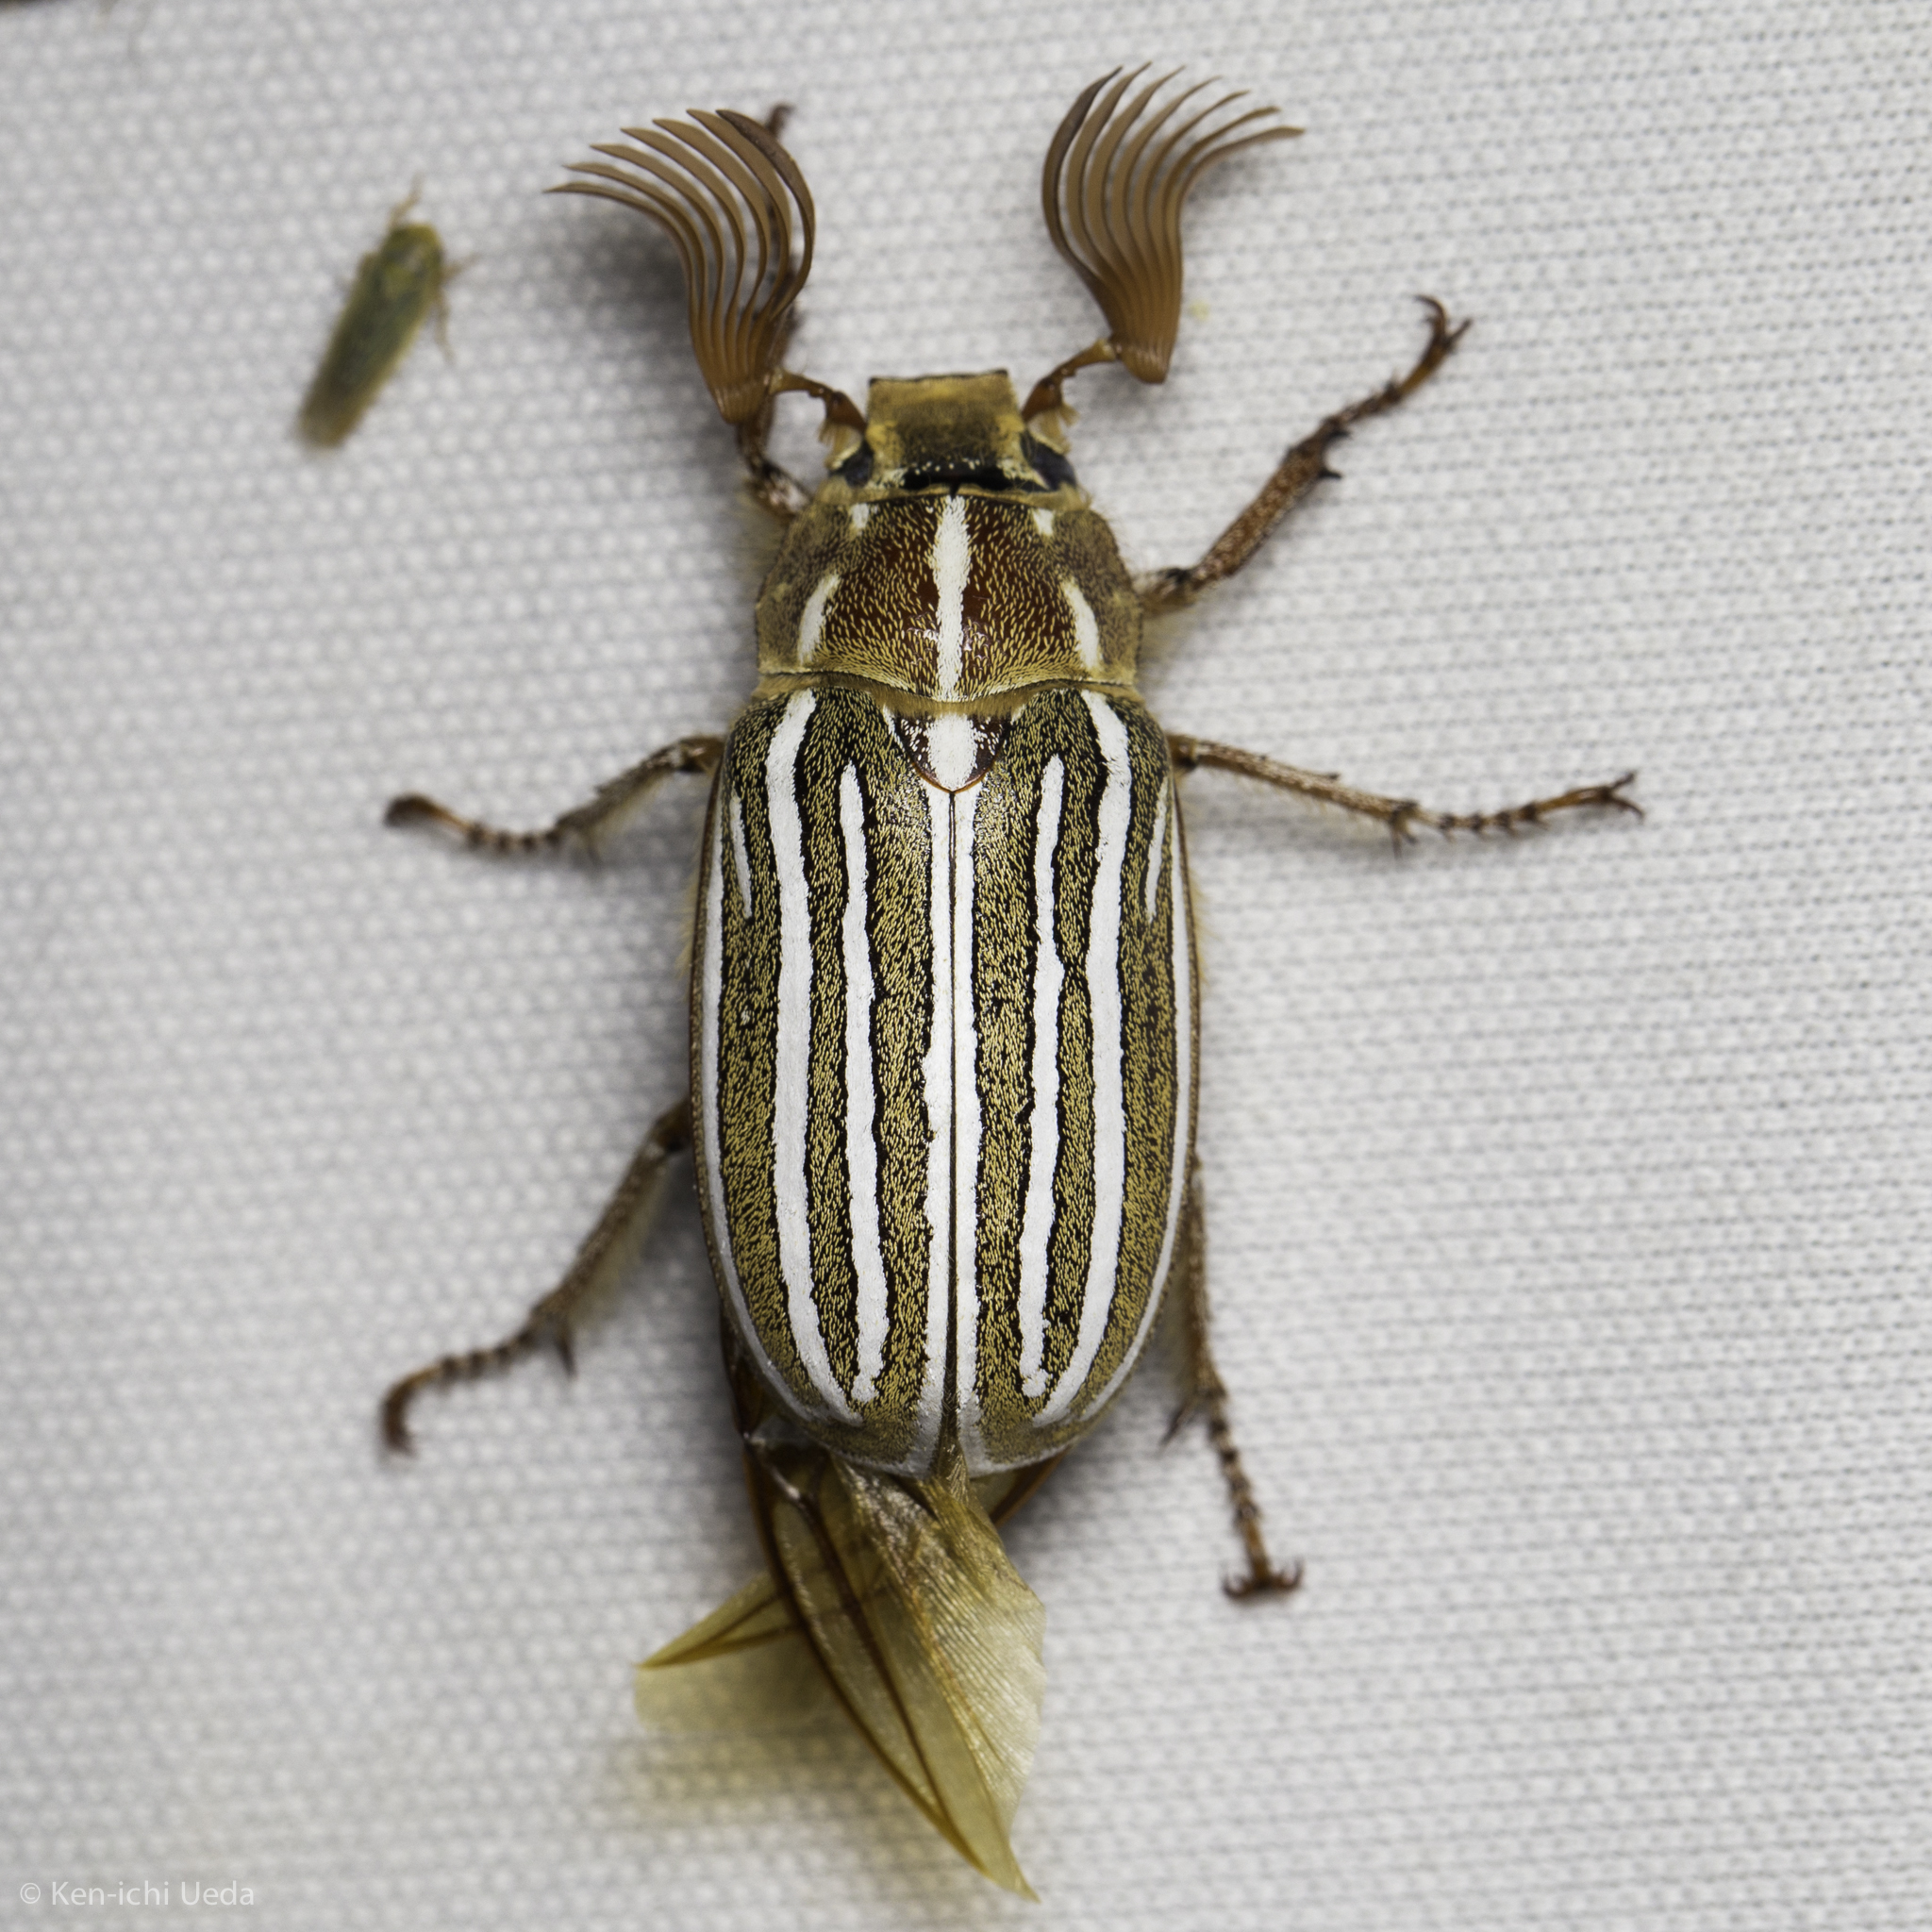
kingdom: Animalia
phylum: Arthropoda
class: Insecta
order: Coleoptera
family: Scarabaeidae
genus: Polyphylla
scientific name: Polyphylla decemlineata
